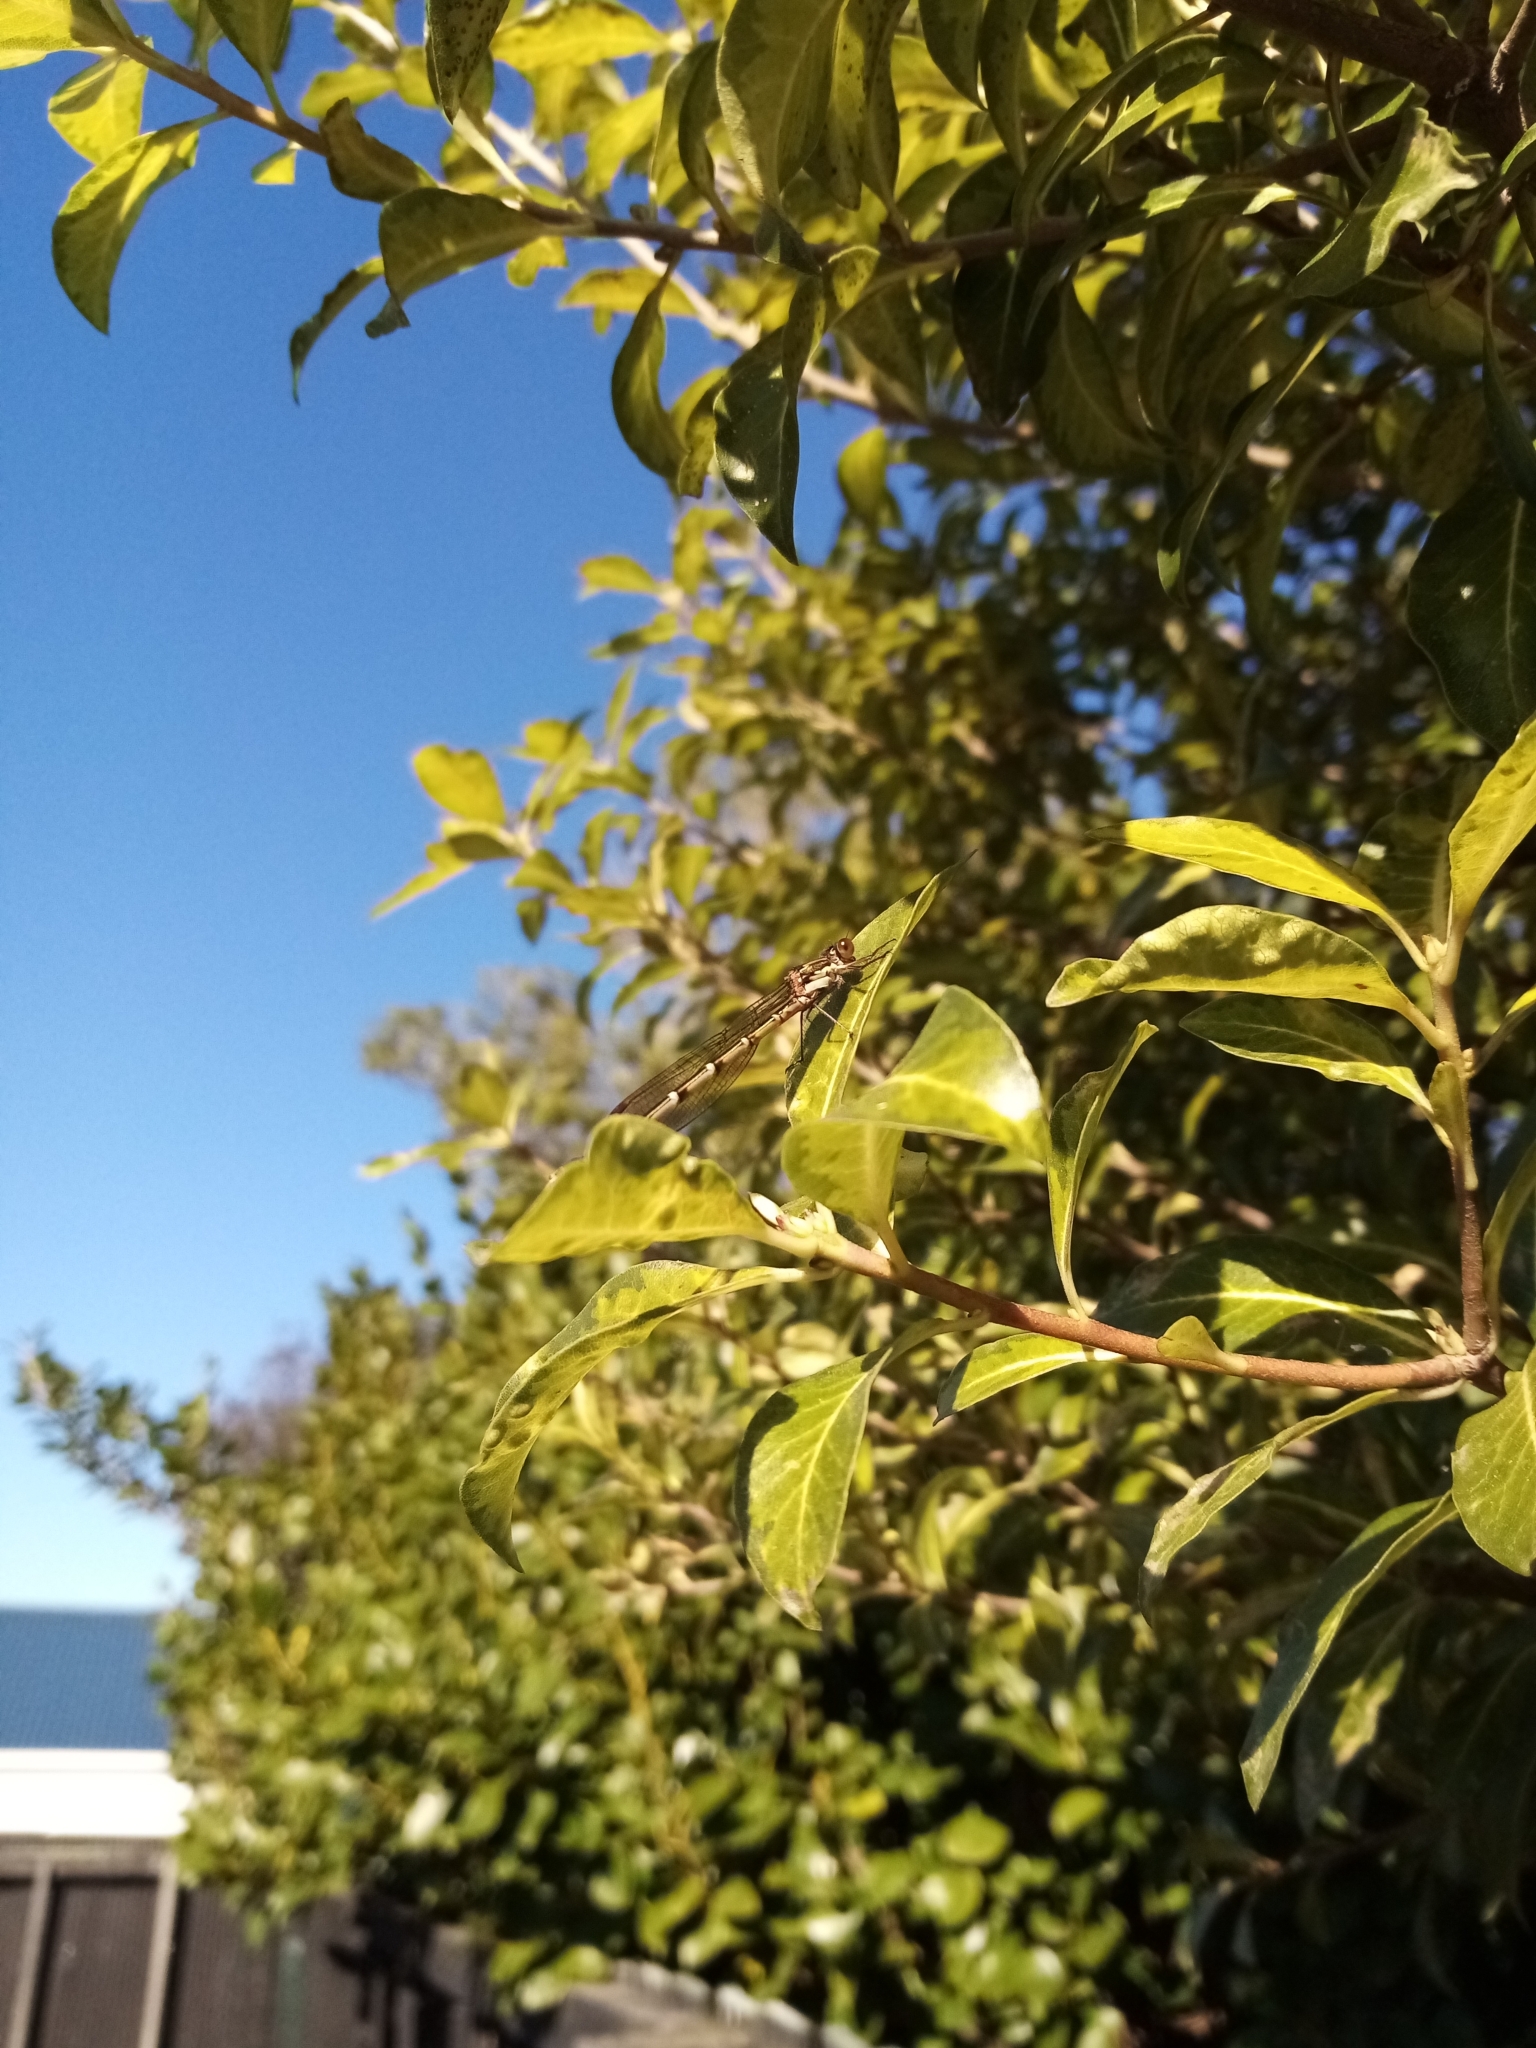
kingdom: Animalia
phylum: Arthropoda
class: Insecta
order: Odonata
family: Lestidae
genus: Austrolestes
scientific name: Austrolestes colensonis
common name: Blue damselfly
